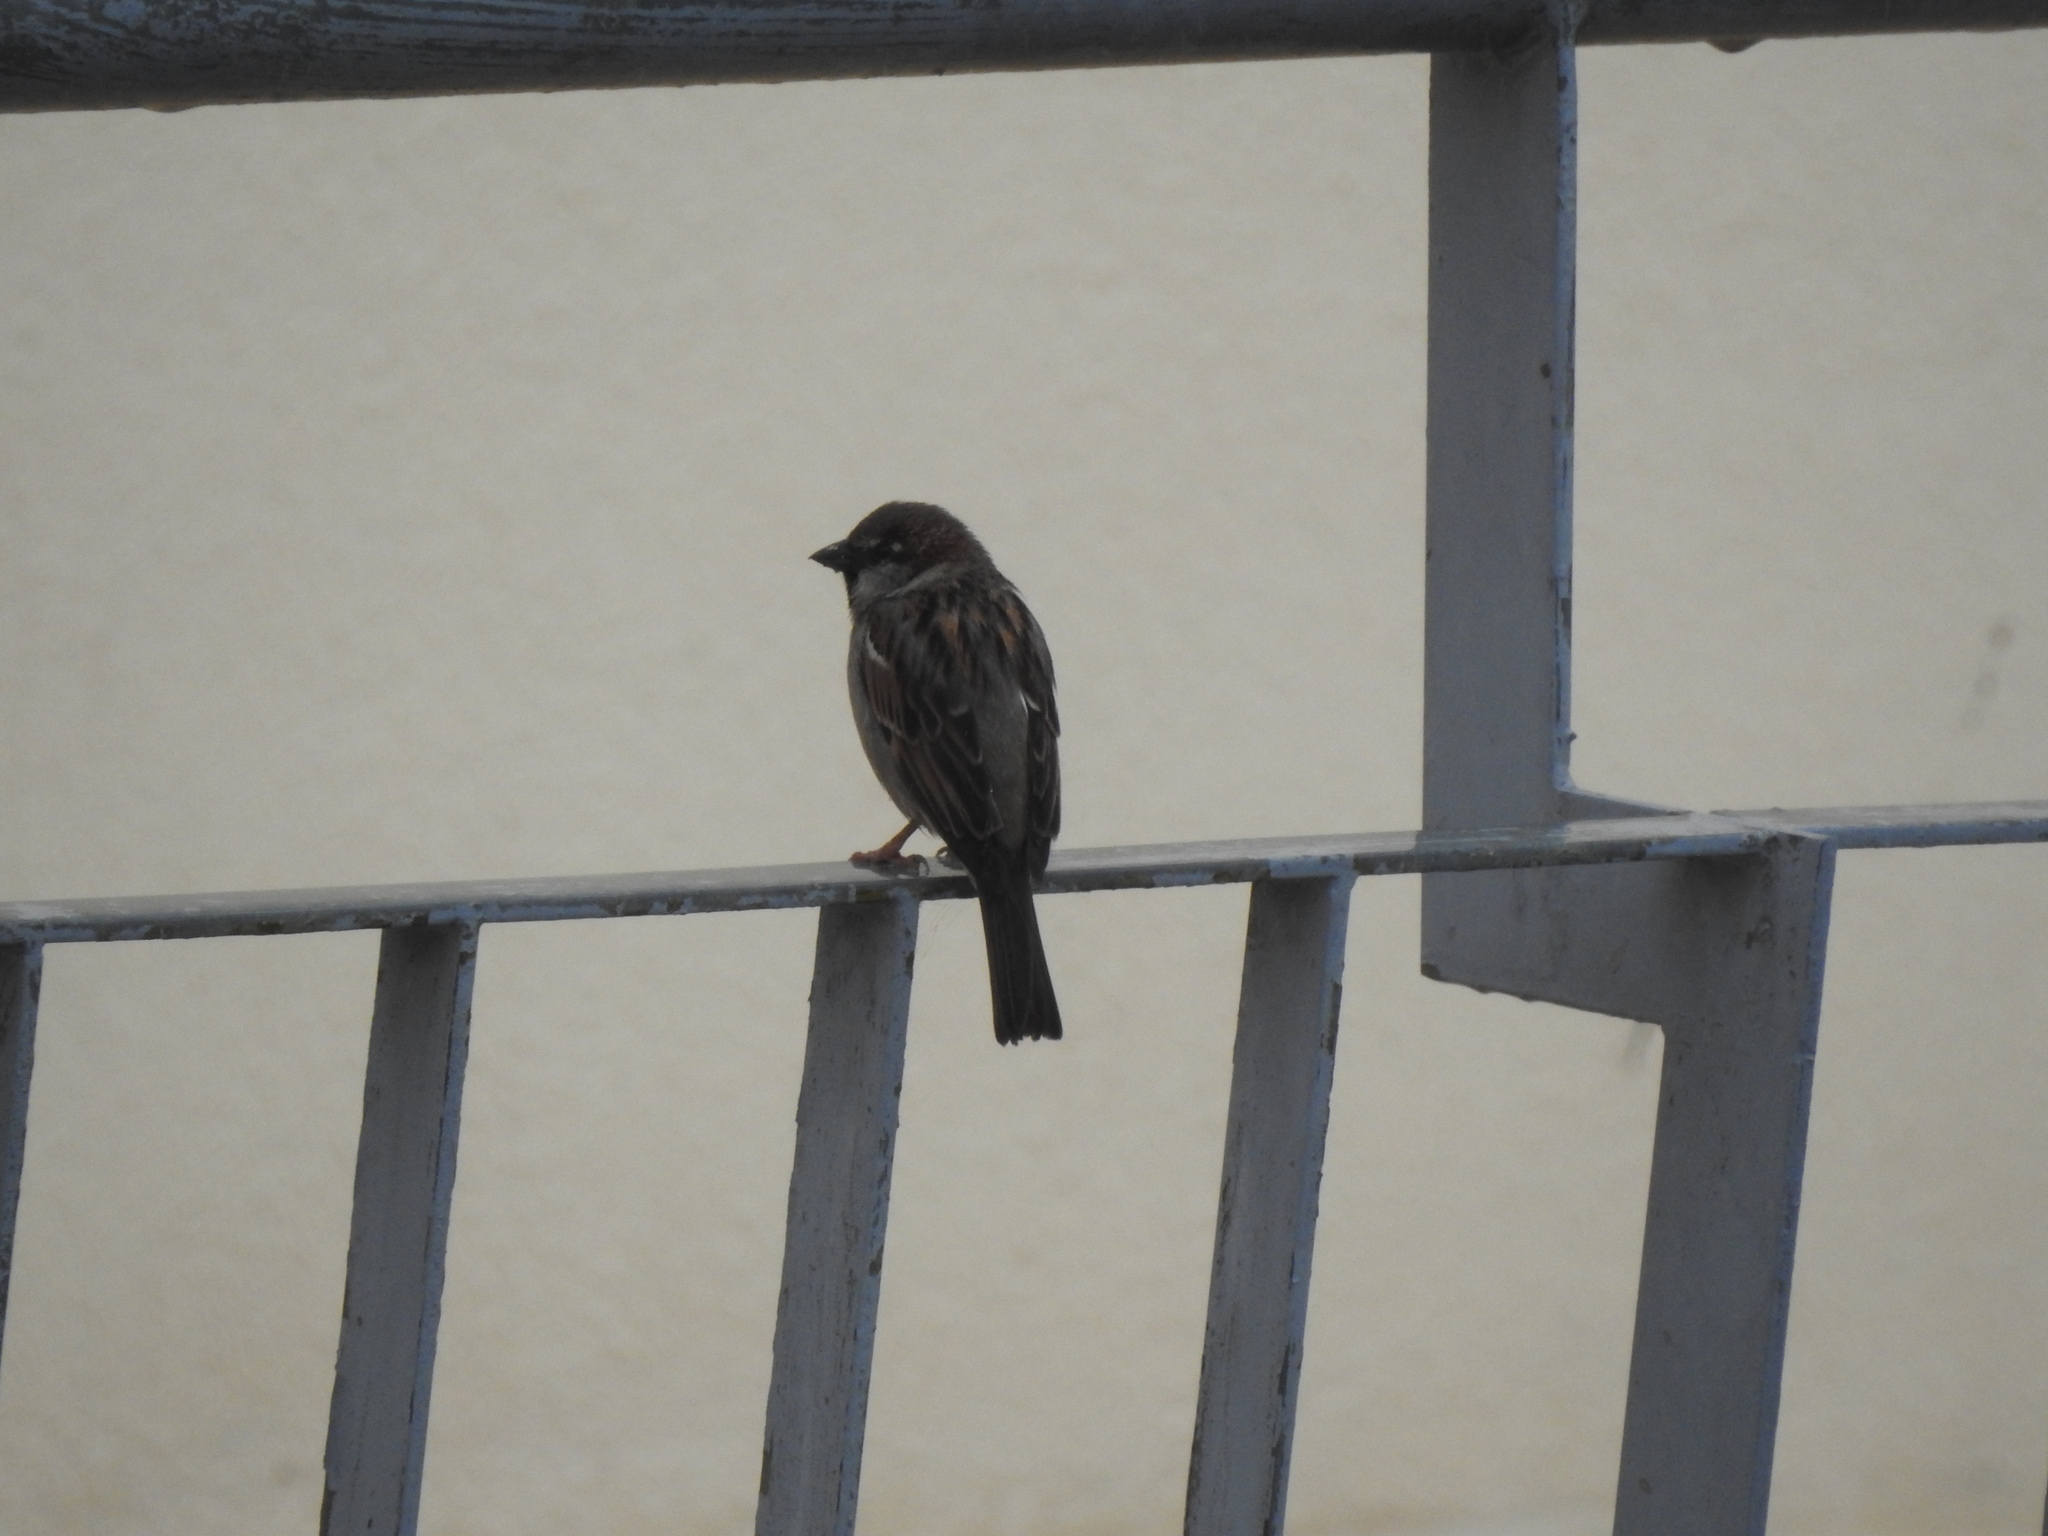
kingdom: Animalia
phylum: Chordata
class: Aves
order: Passeriformes
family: Passeridae
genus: Passer
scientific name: Passer domesticus
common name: House sparrow
